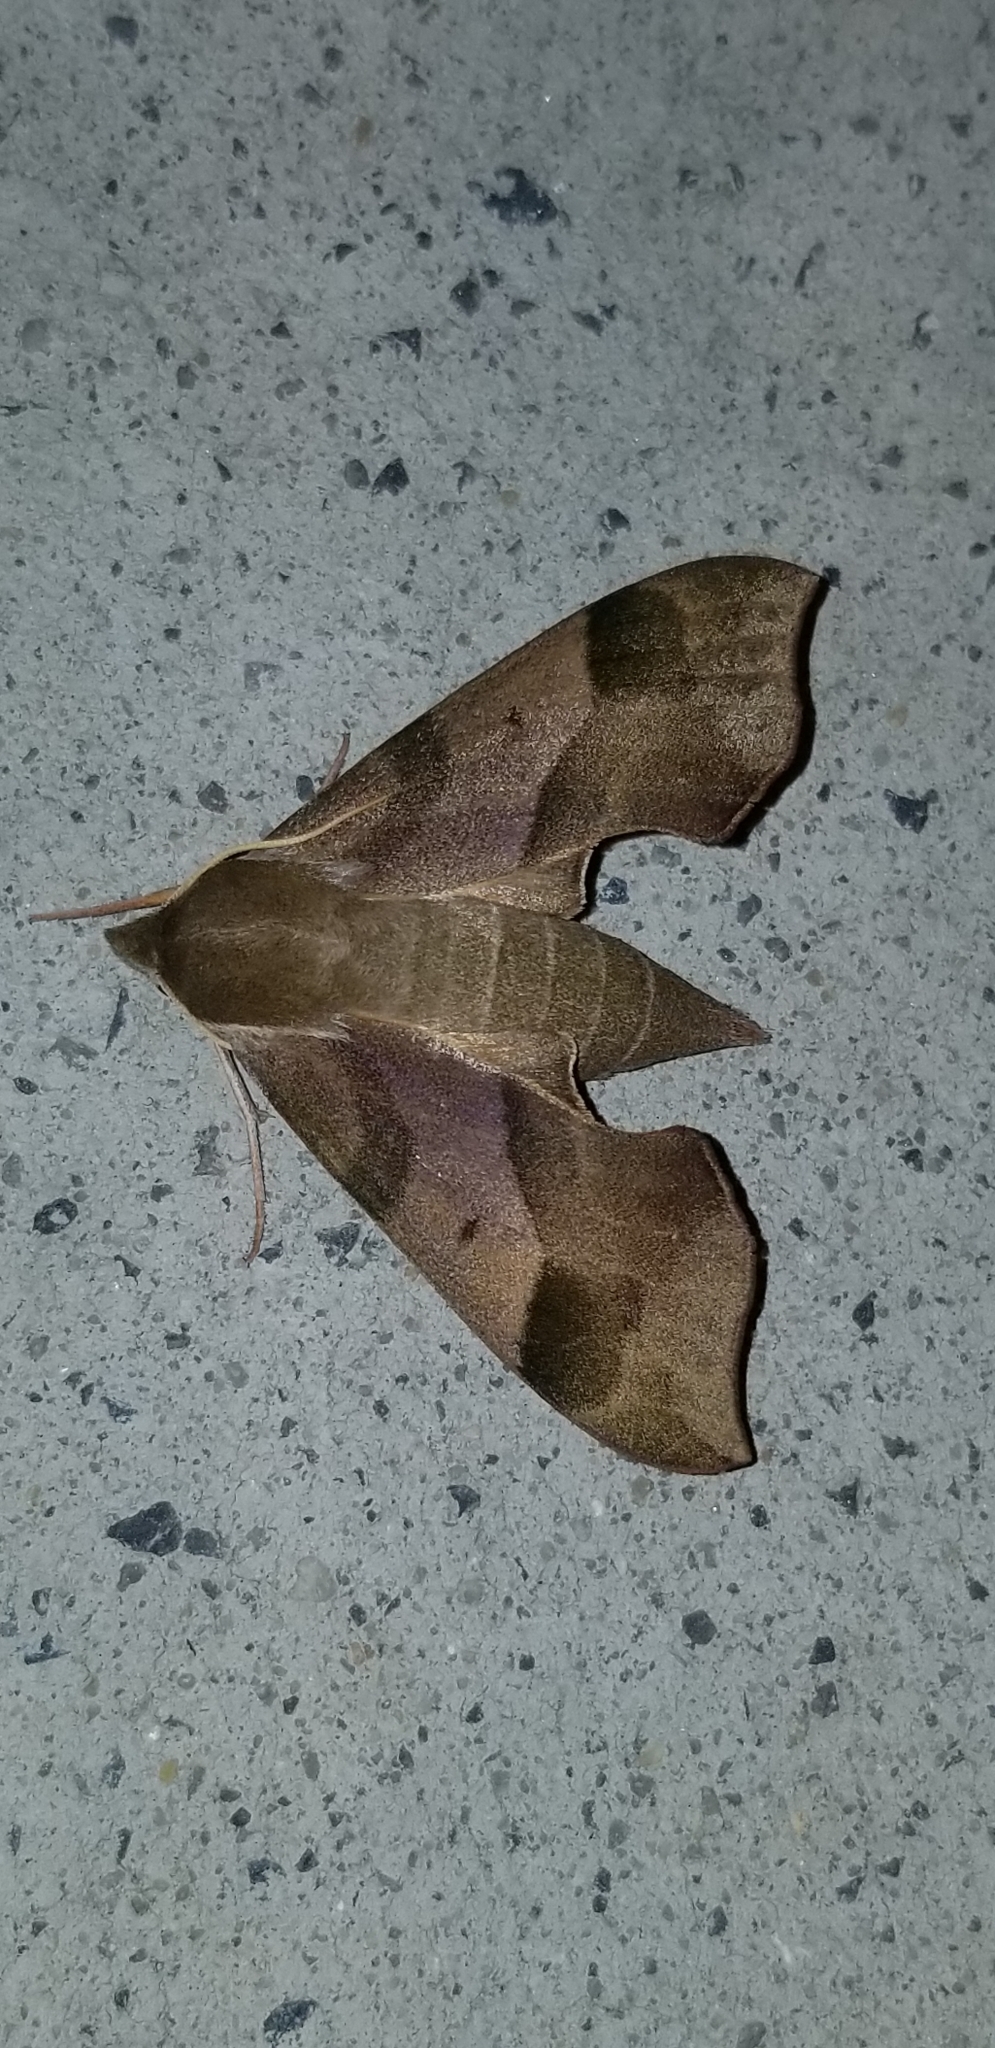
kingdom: Animalia
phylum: Arthropoda
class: Insecta
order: Lepidoptera
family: Sphingidae
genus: Darapsa
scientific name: Darapsa myron
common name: Hog sphinx
